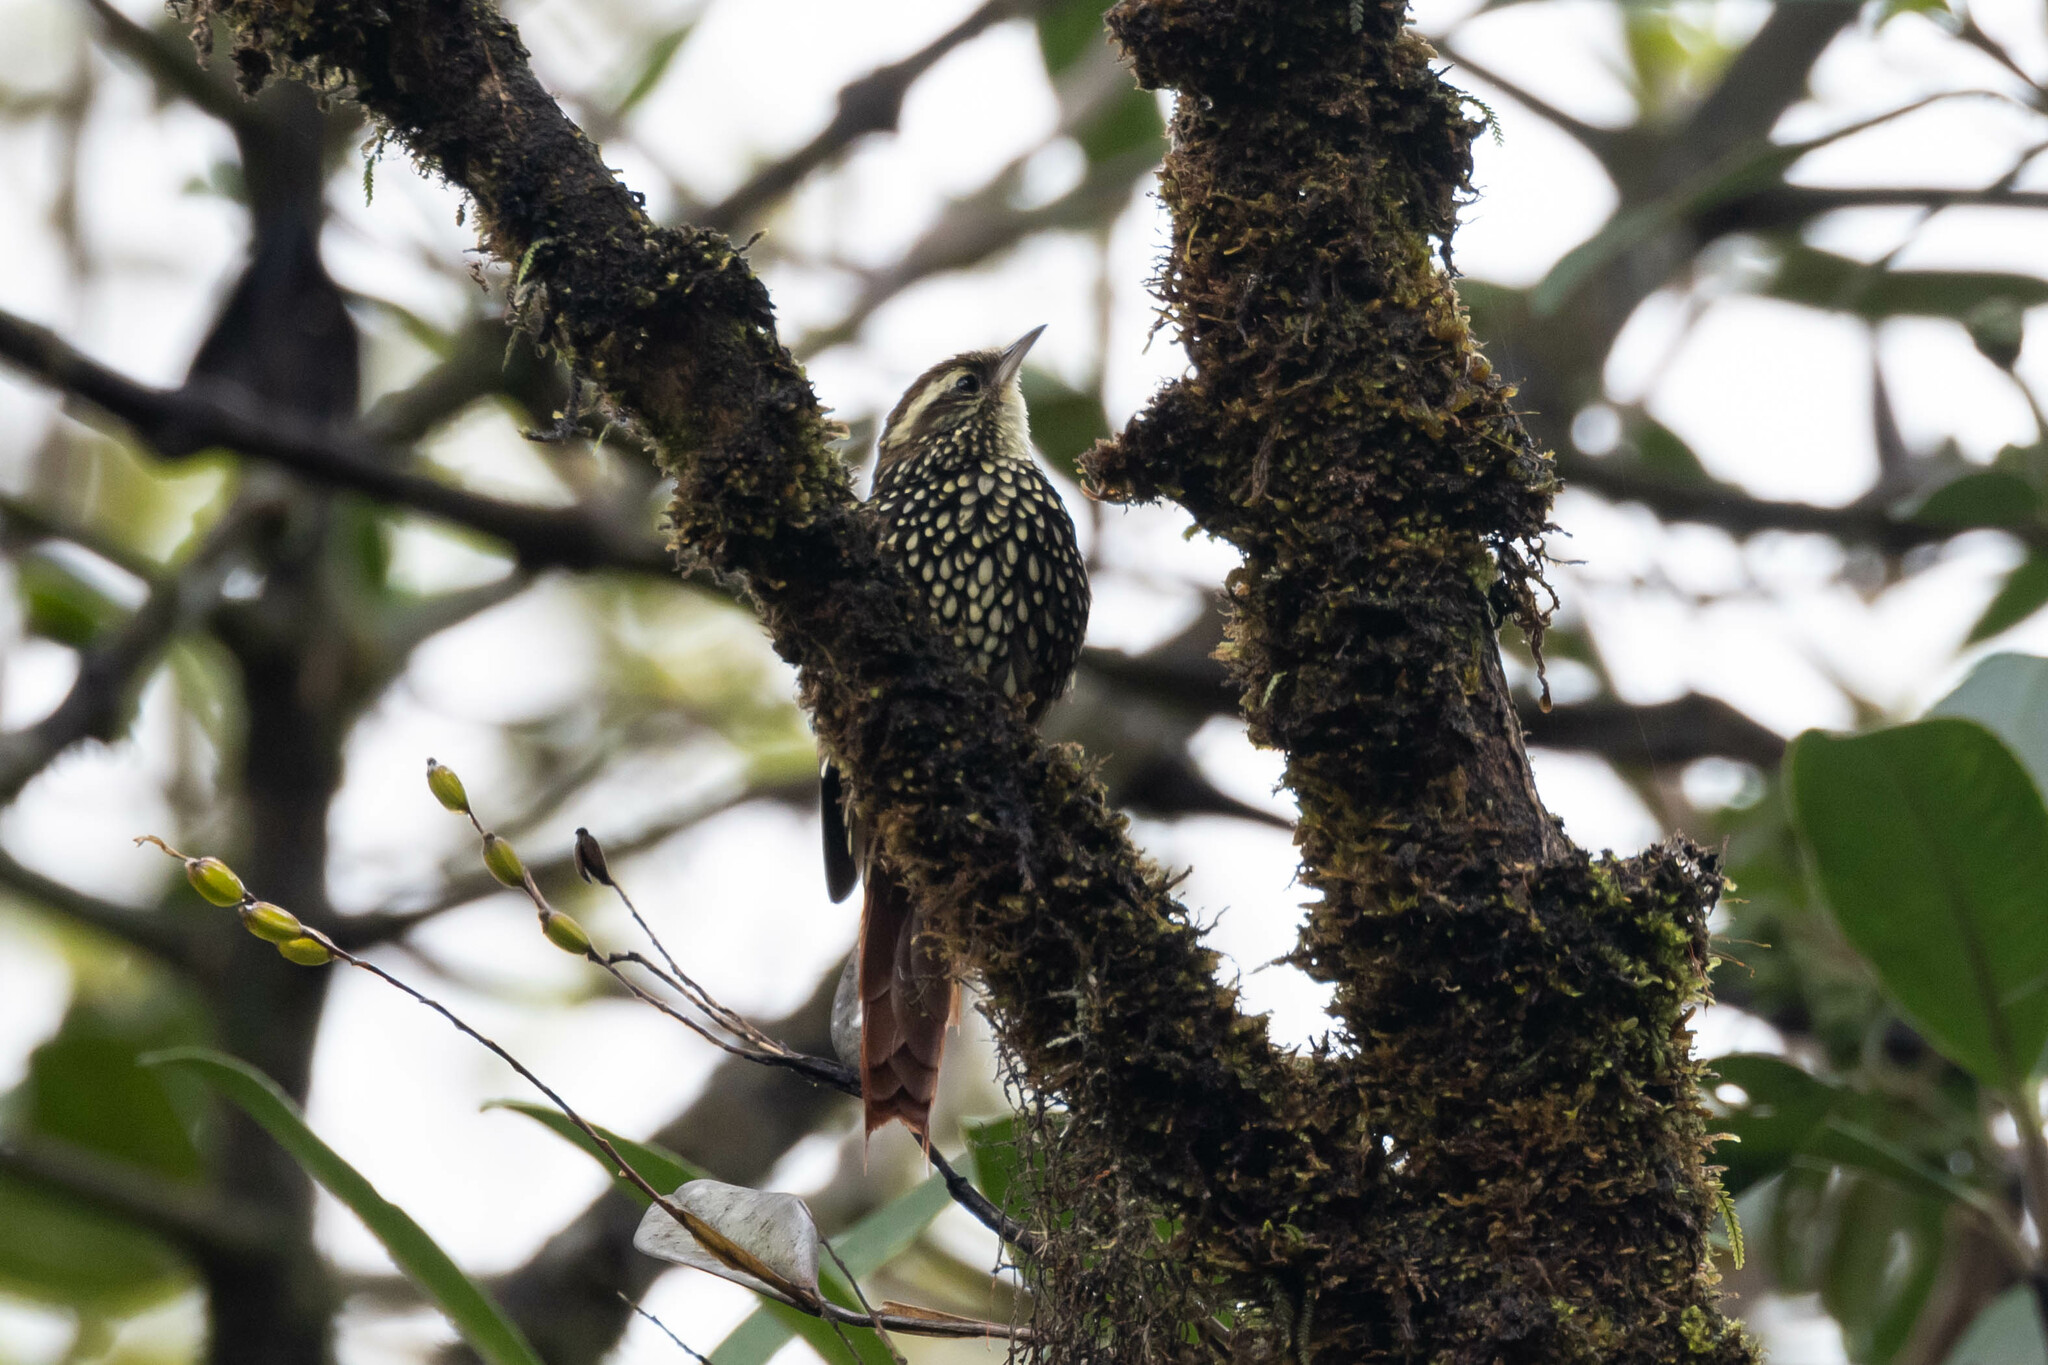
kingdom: Animalia
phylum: Chordata
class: Aves
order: Passeriformes
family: Furnariidae
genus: Margarornis
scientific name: Margarornis squamiger
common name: Pearled treerunner
